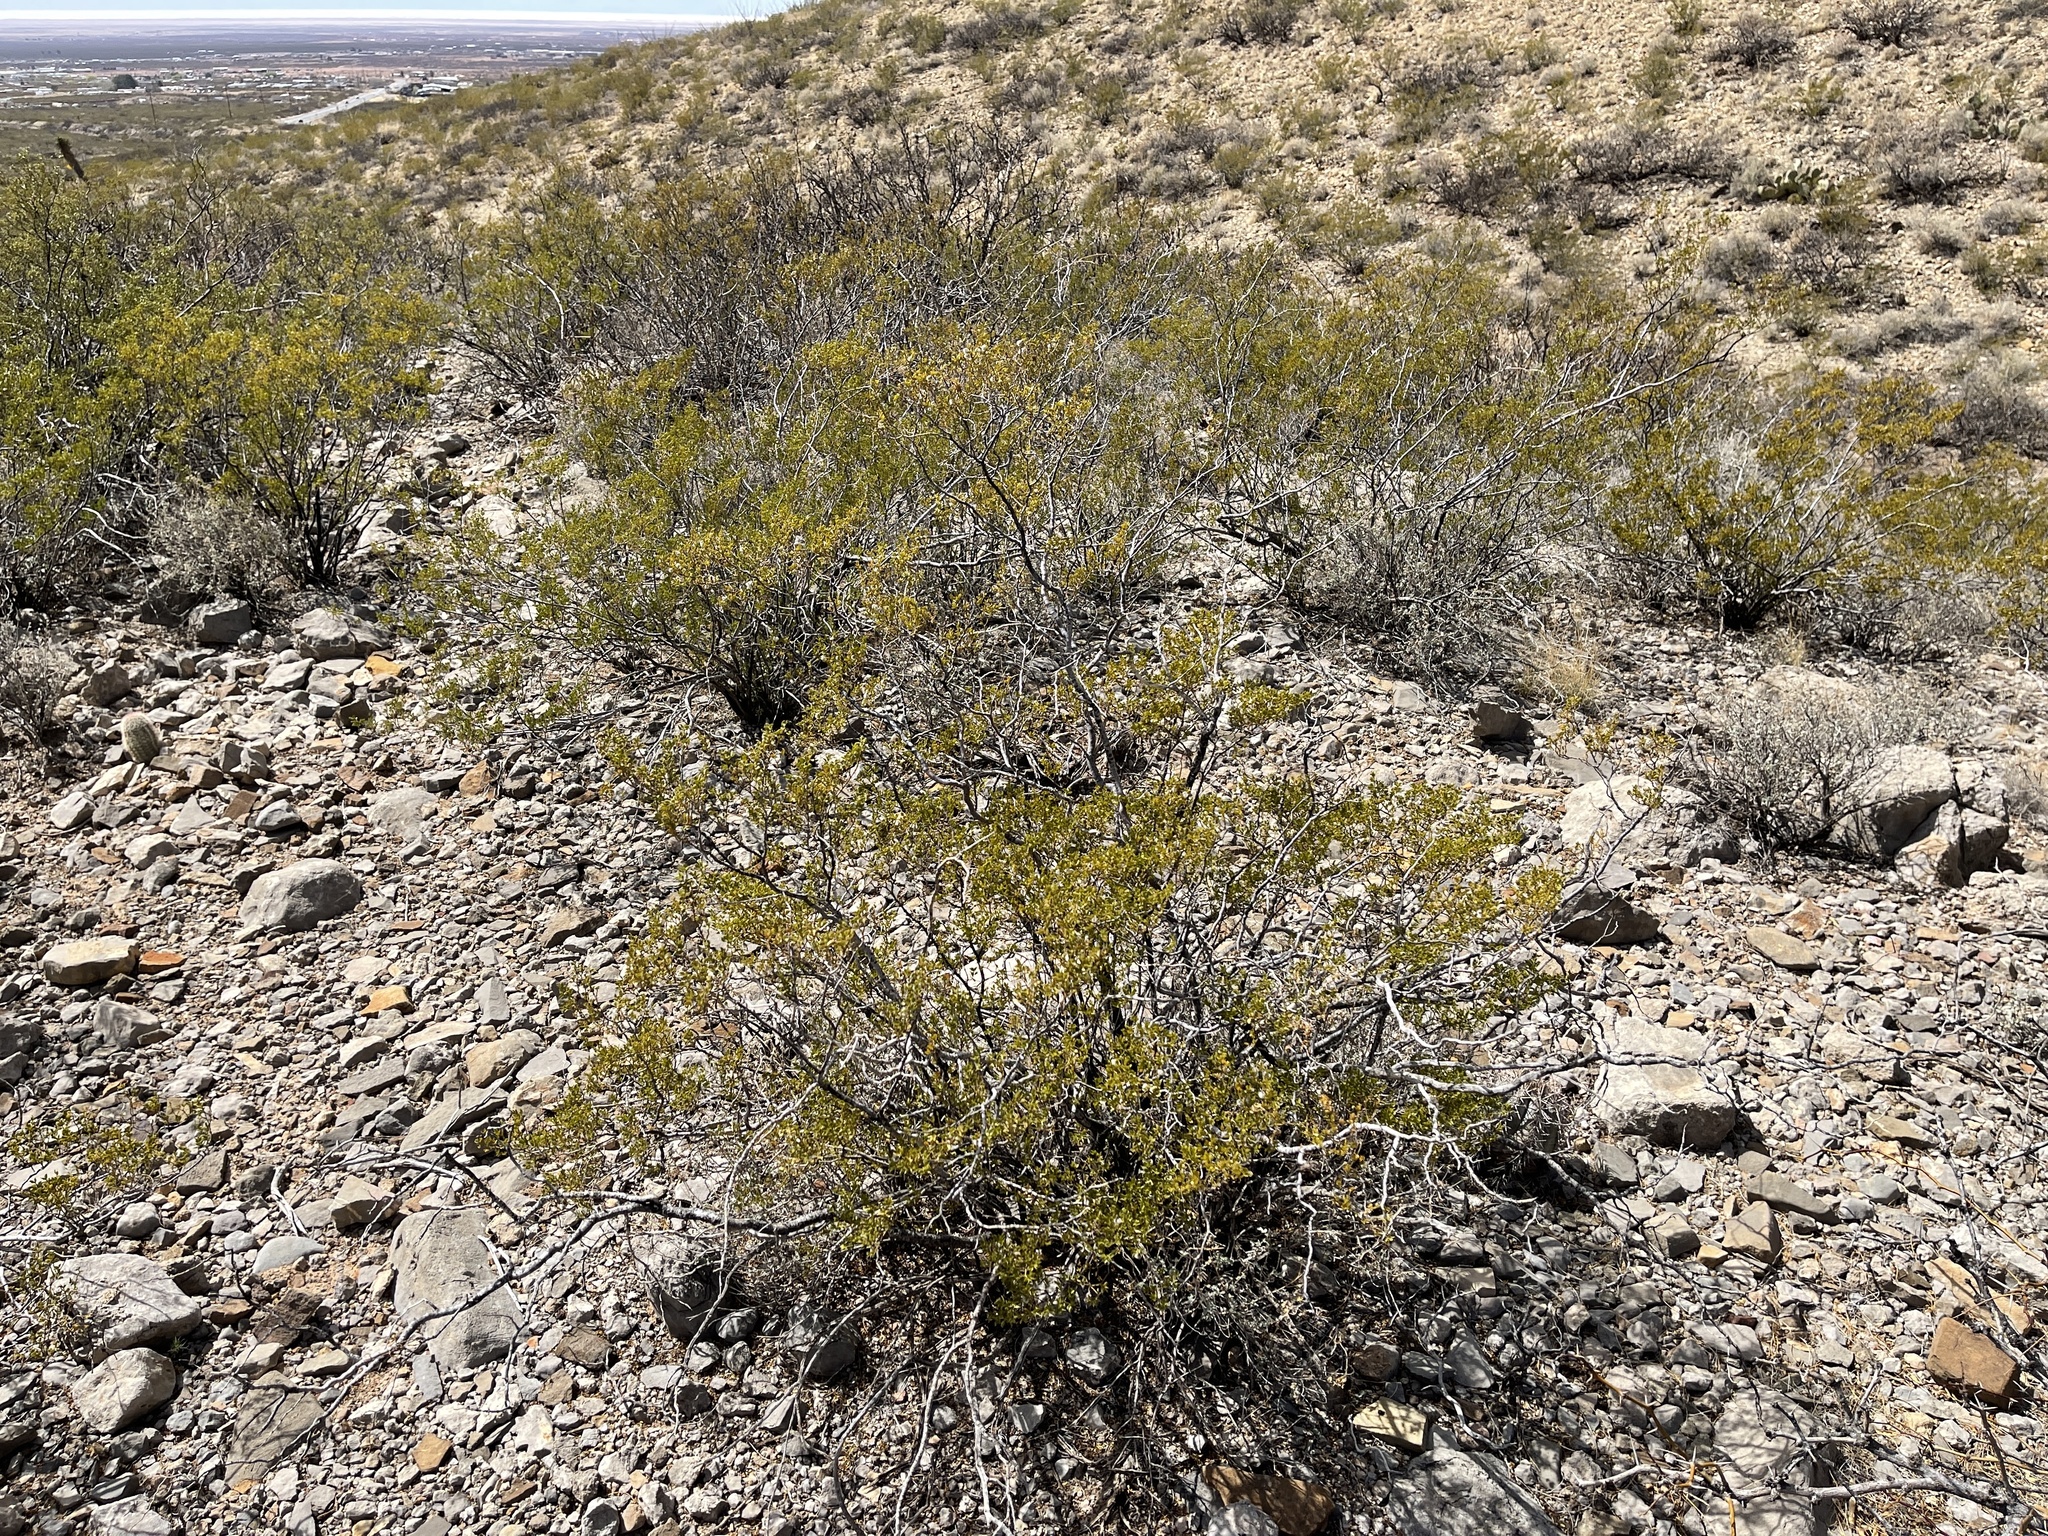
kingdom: Plantae
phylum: Tracheophyta
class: Magnoliopsida
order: Zygophyllales
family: Zygophyllaceae
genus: Larrea
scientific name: Larrea tridentata
